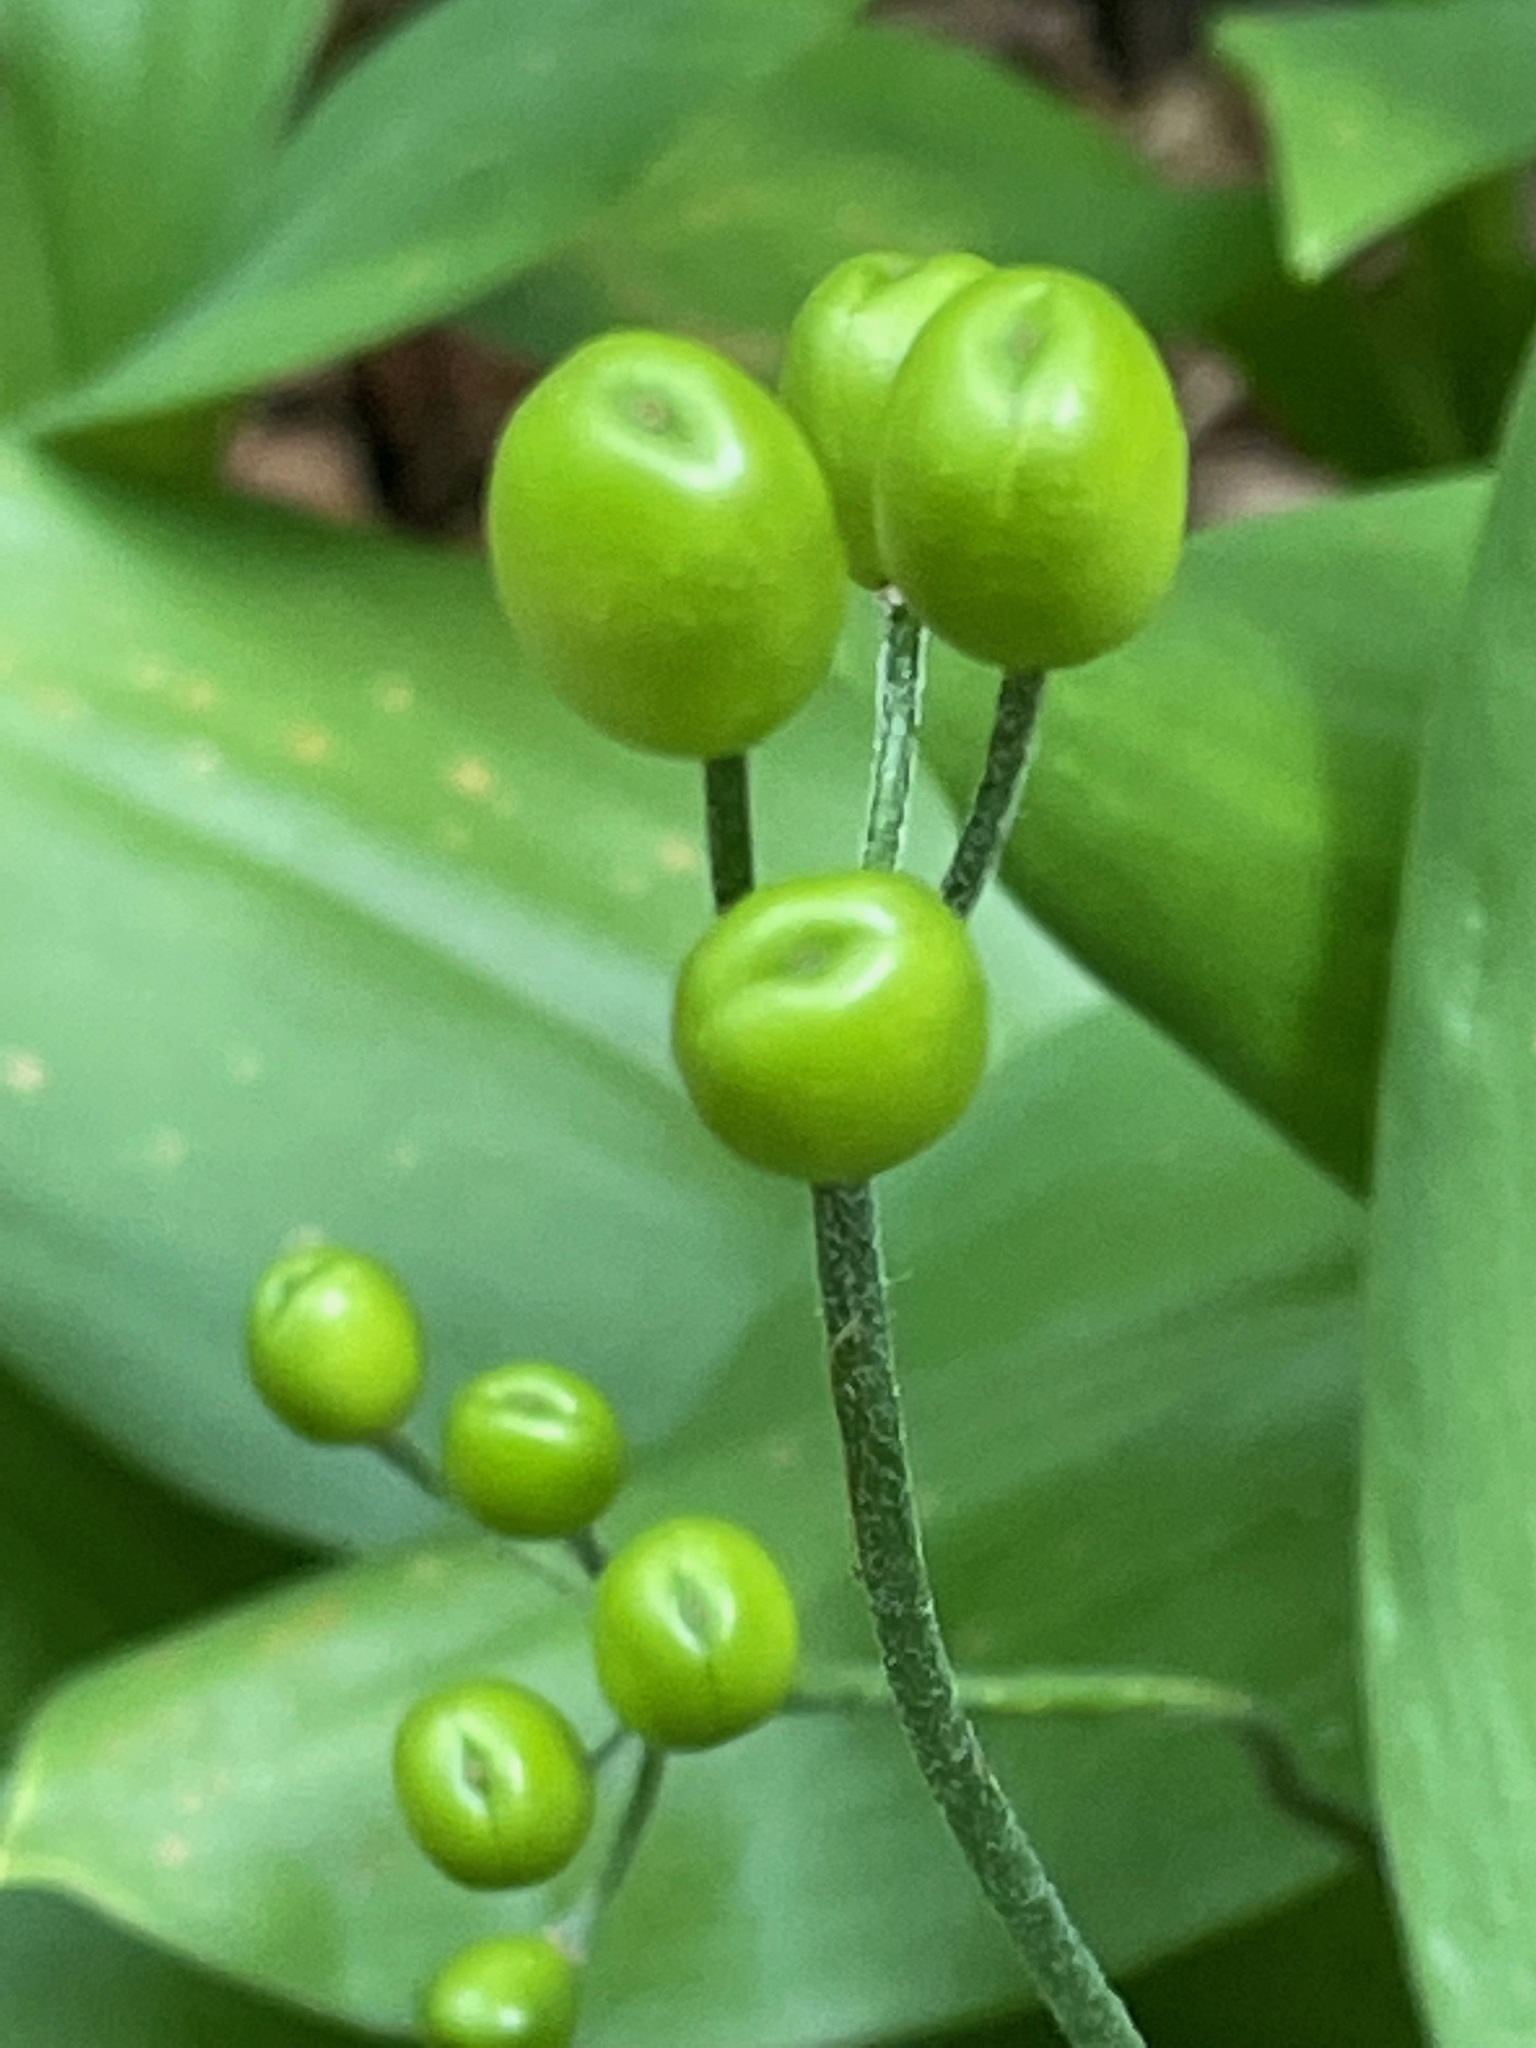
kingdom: Plantae
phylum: Tracheophyta
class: Liliopsida
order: Liliales
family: Liliaceae
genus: Clintonia
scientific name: Clintonia borealis
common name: Yellow clintonia
